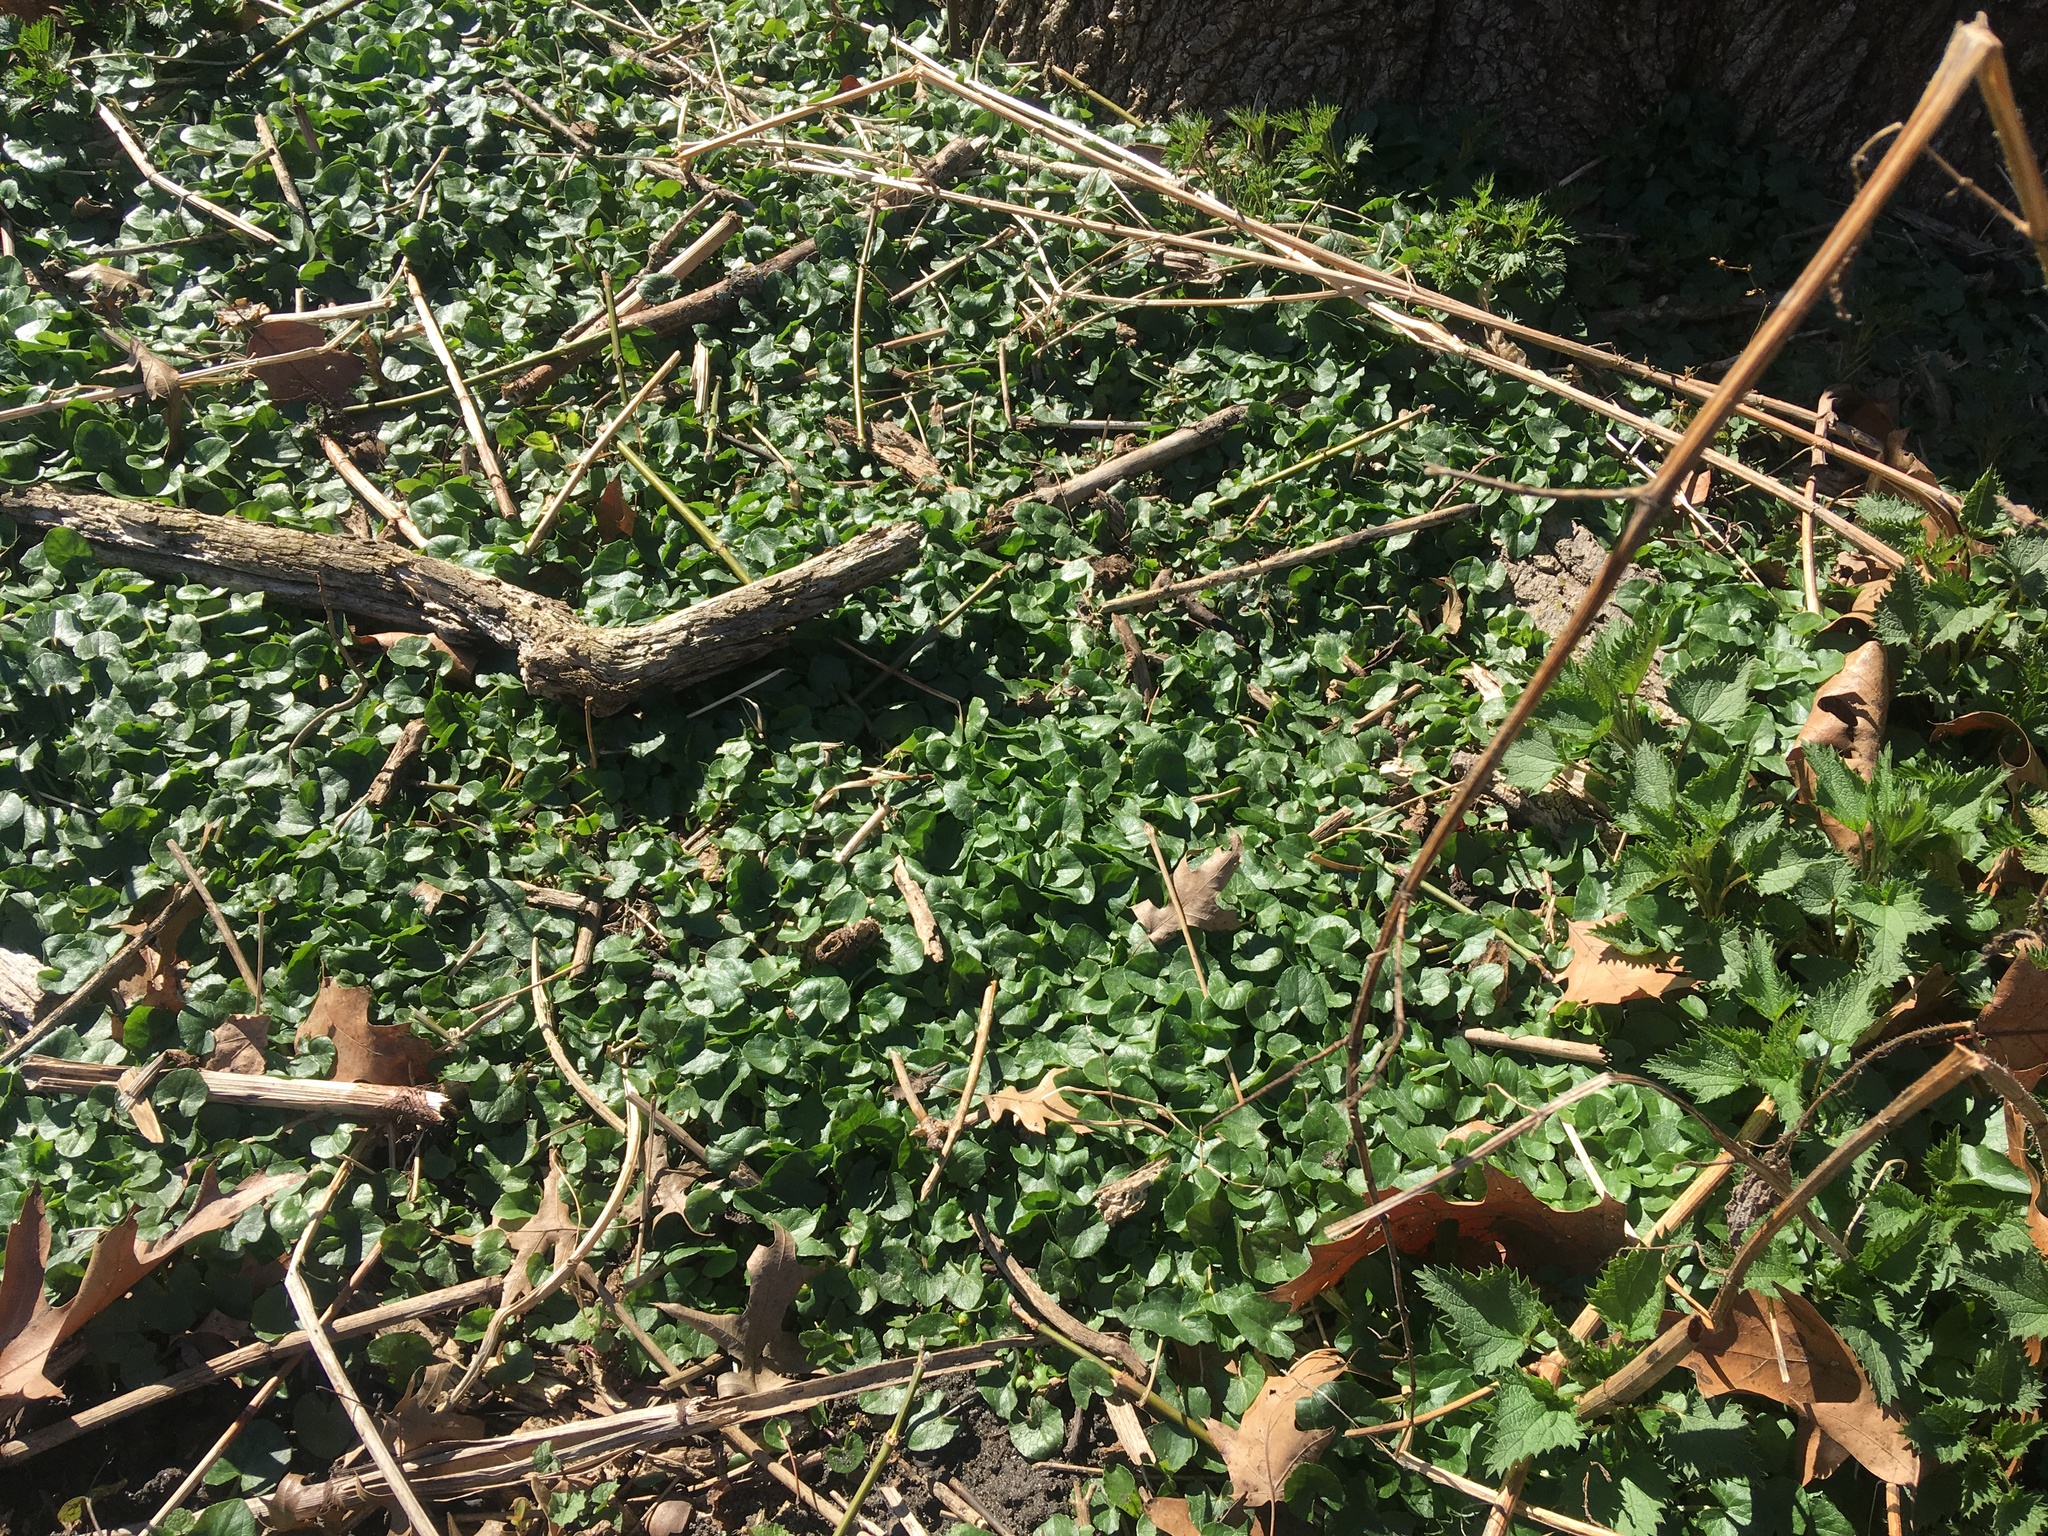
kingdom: Plantae
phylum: Tracheophyta
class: Magnoliopsida
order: Ranunculales
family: Ranunculaceae
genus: Ficaria
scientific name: Ficaria verna
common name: Lesser celandine
